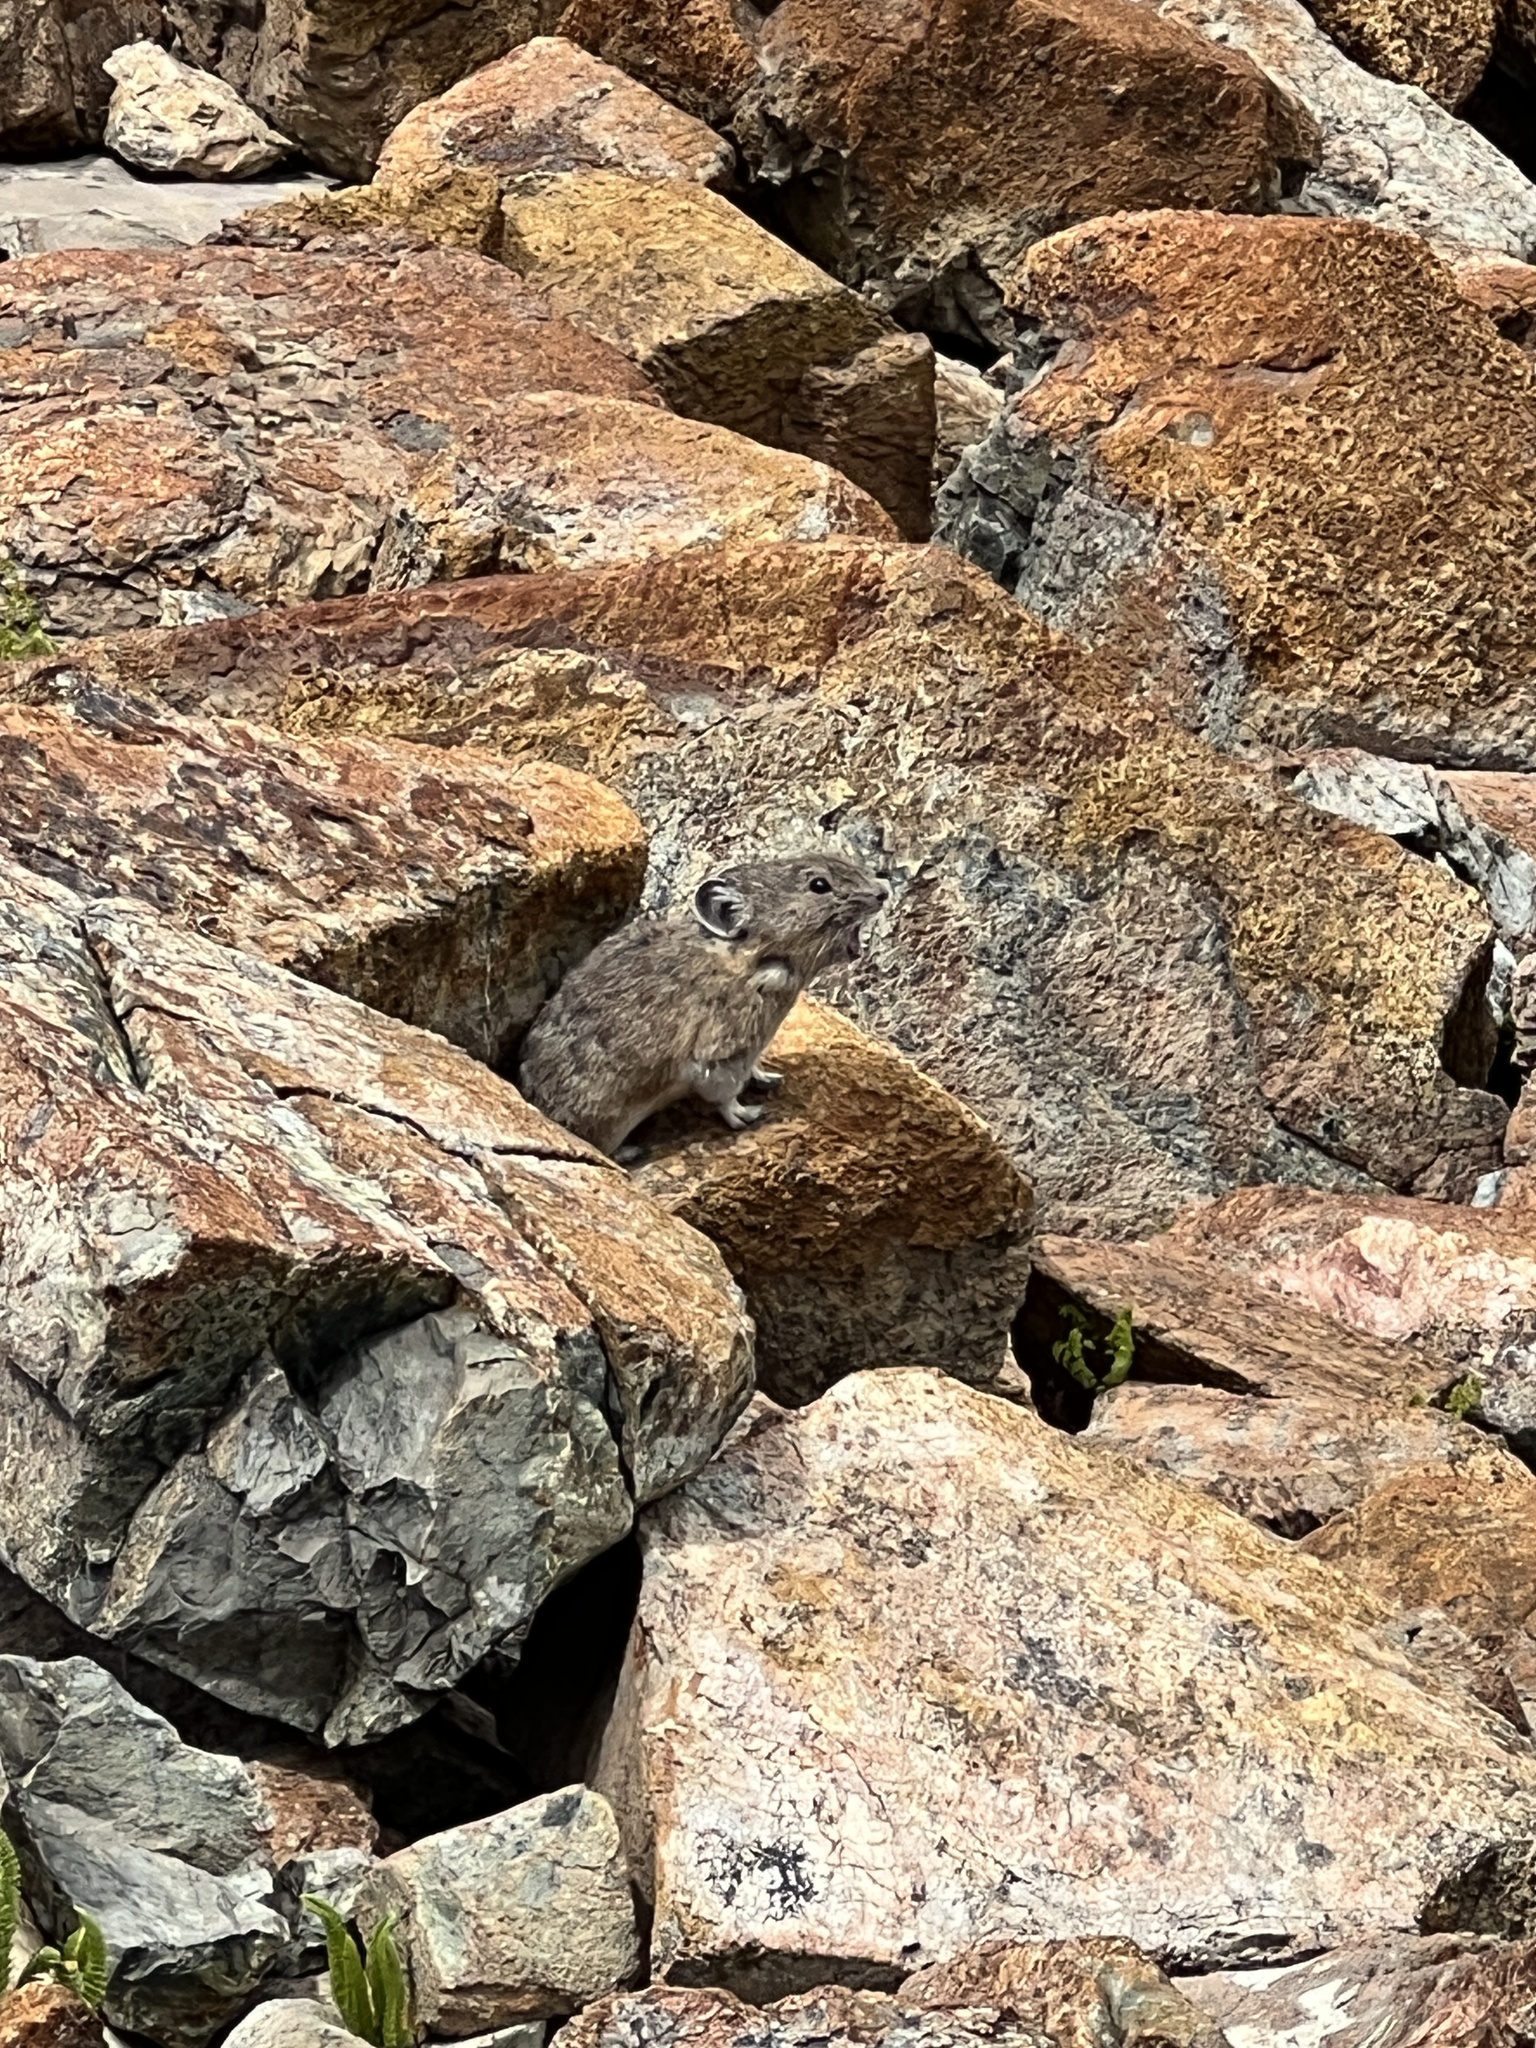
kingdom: Animalia
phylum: Chordata
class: Mammalia
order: Lagomorpha
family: Ochotonidae
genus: Ochotona
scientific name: Ochotona princeps
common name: American pika
